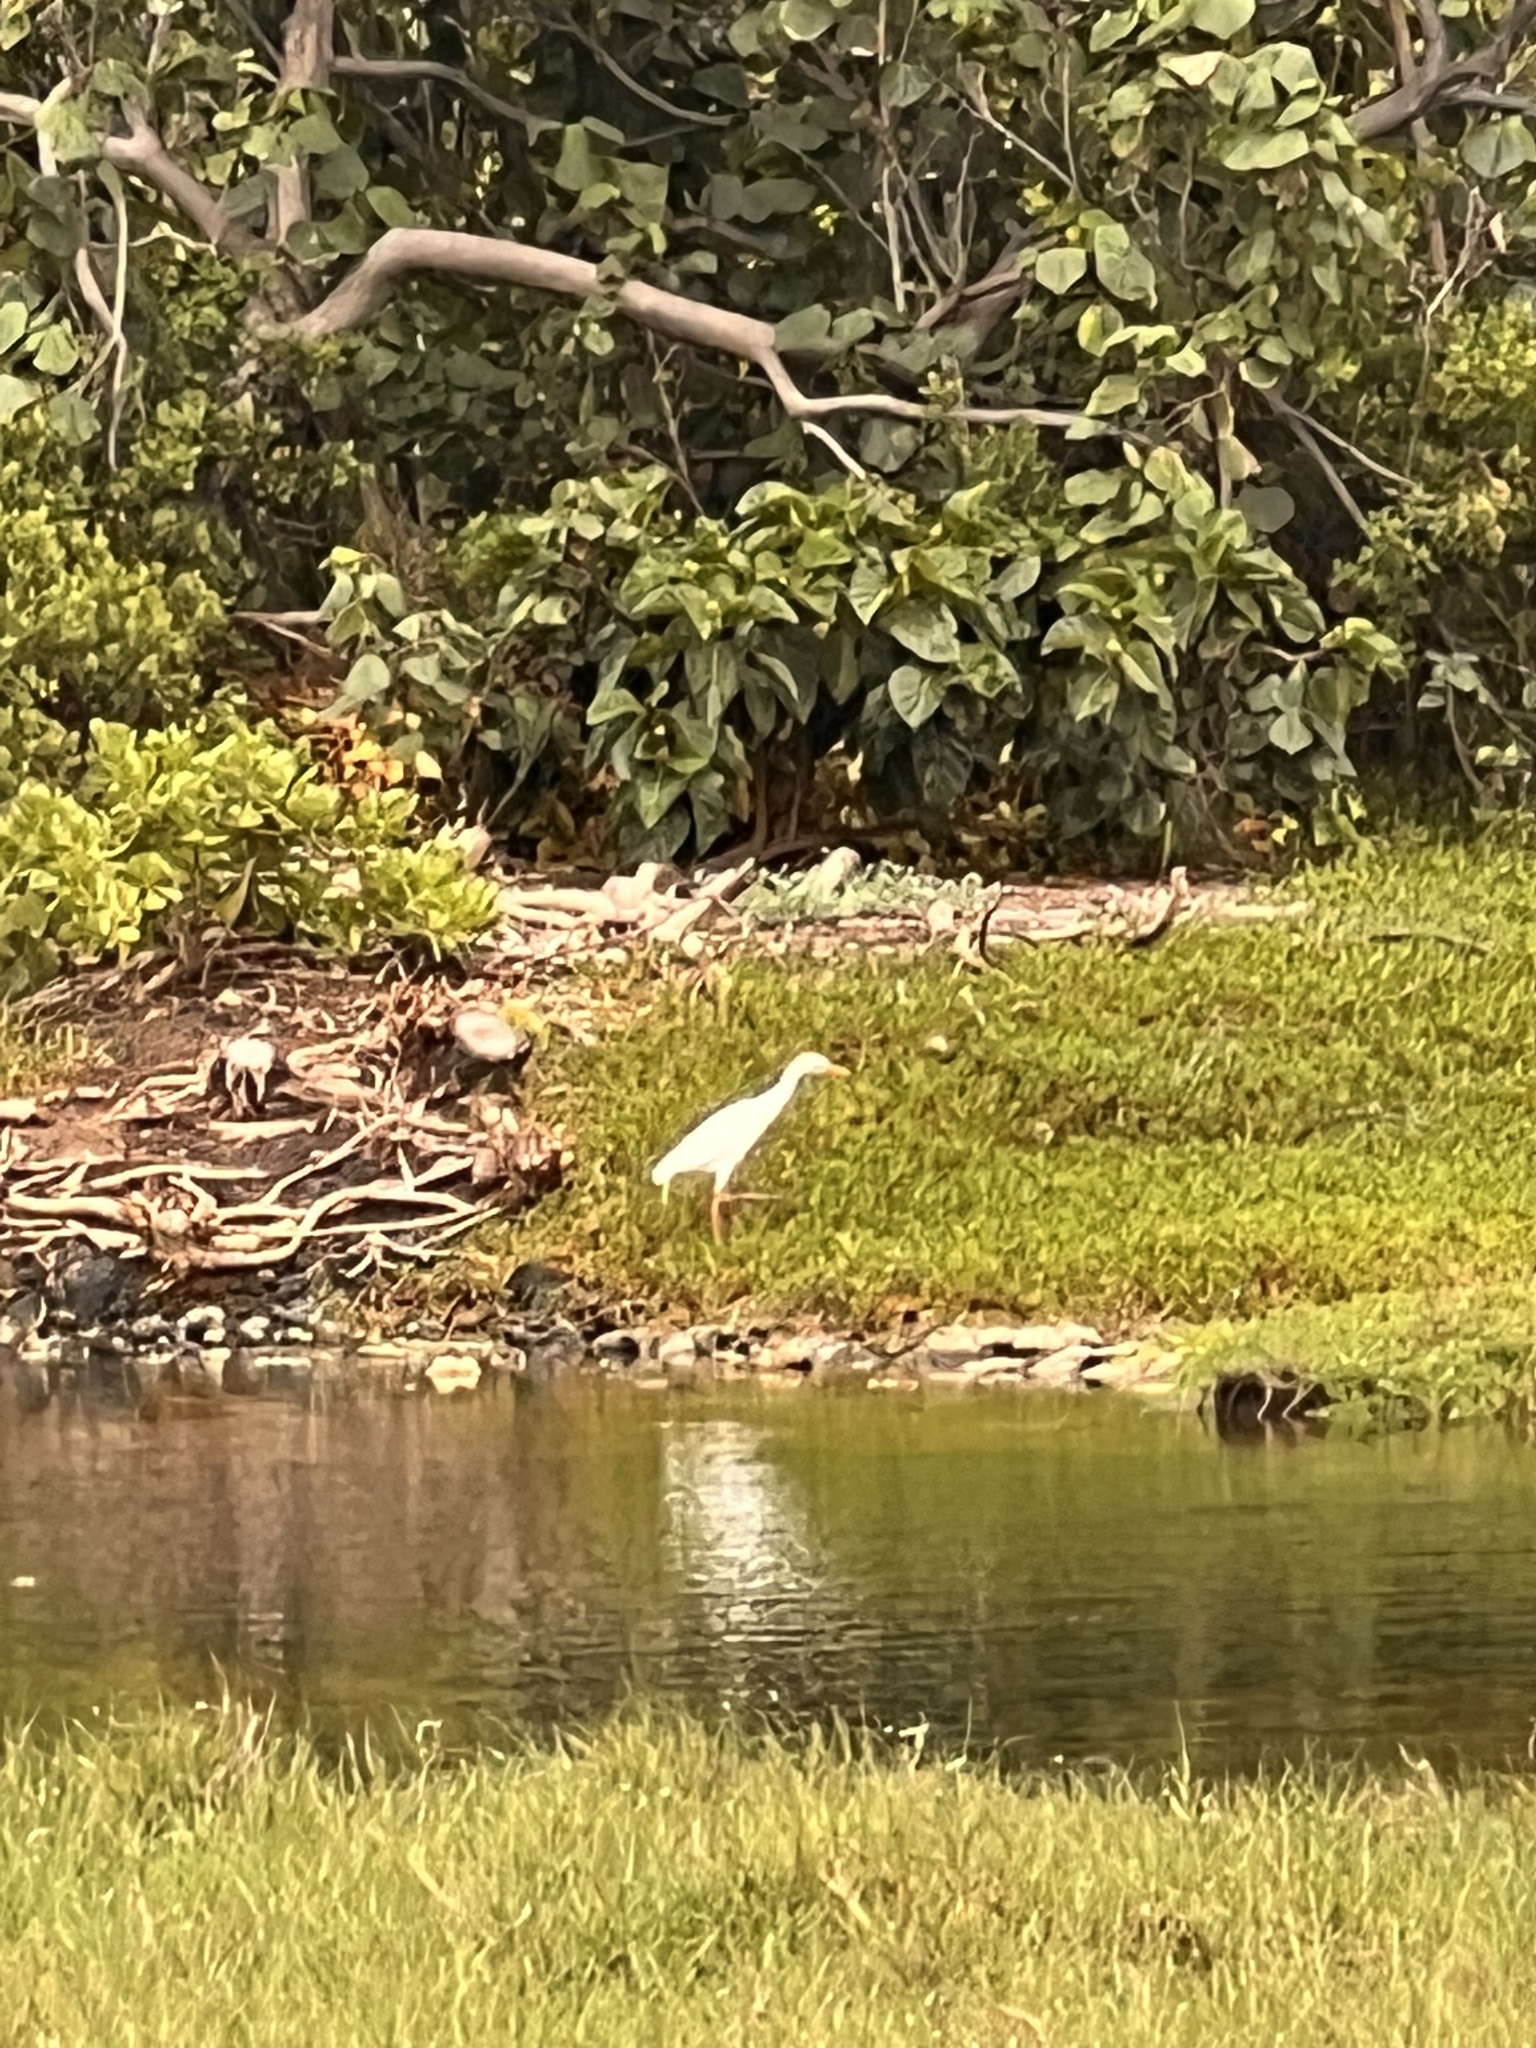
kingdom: Animalia
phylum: Chordata
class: Aves
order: Pelecaniformes
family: Ardeidae
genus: Bubulcus
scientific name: Bubulcus ibis
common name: Cattle egret
